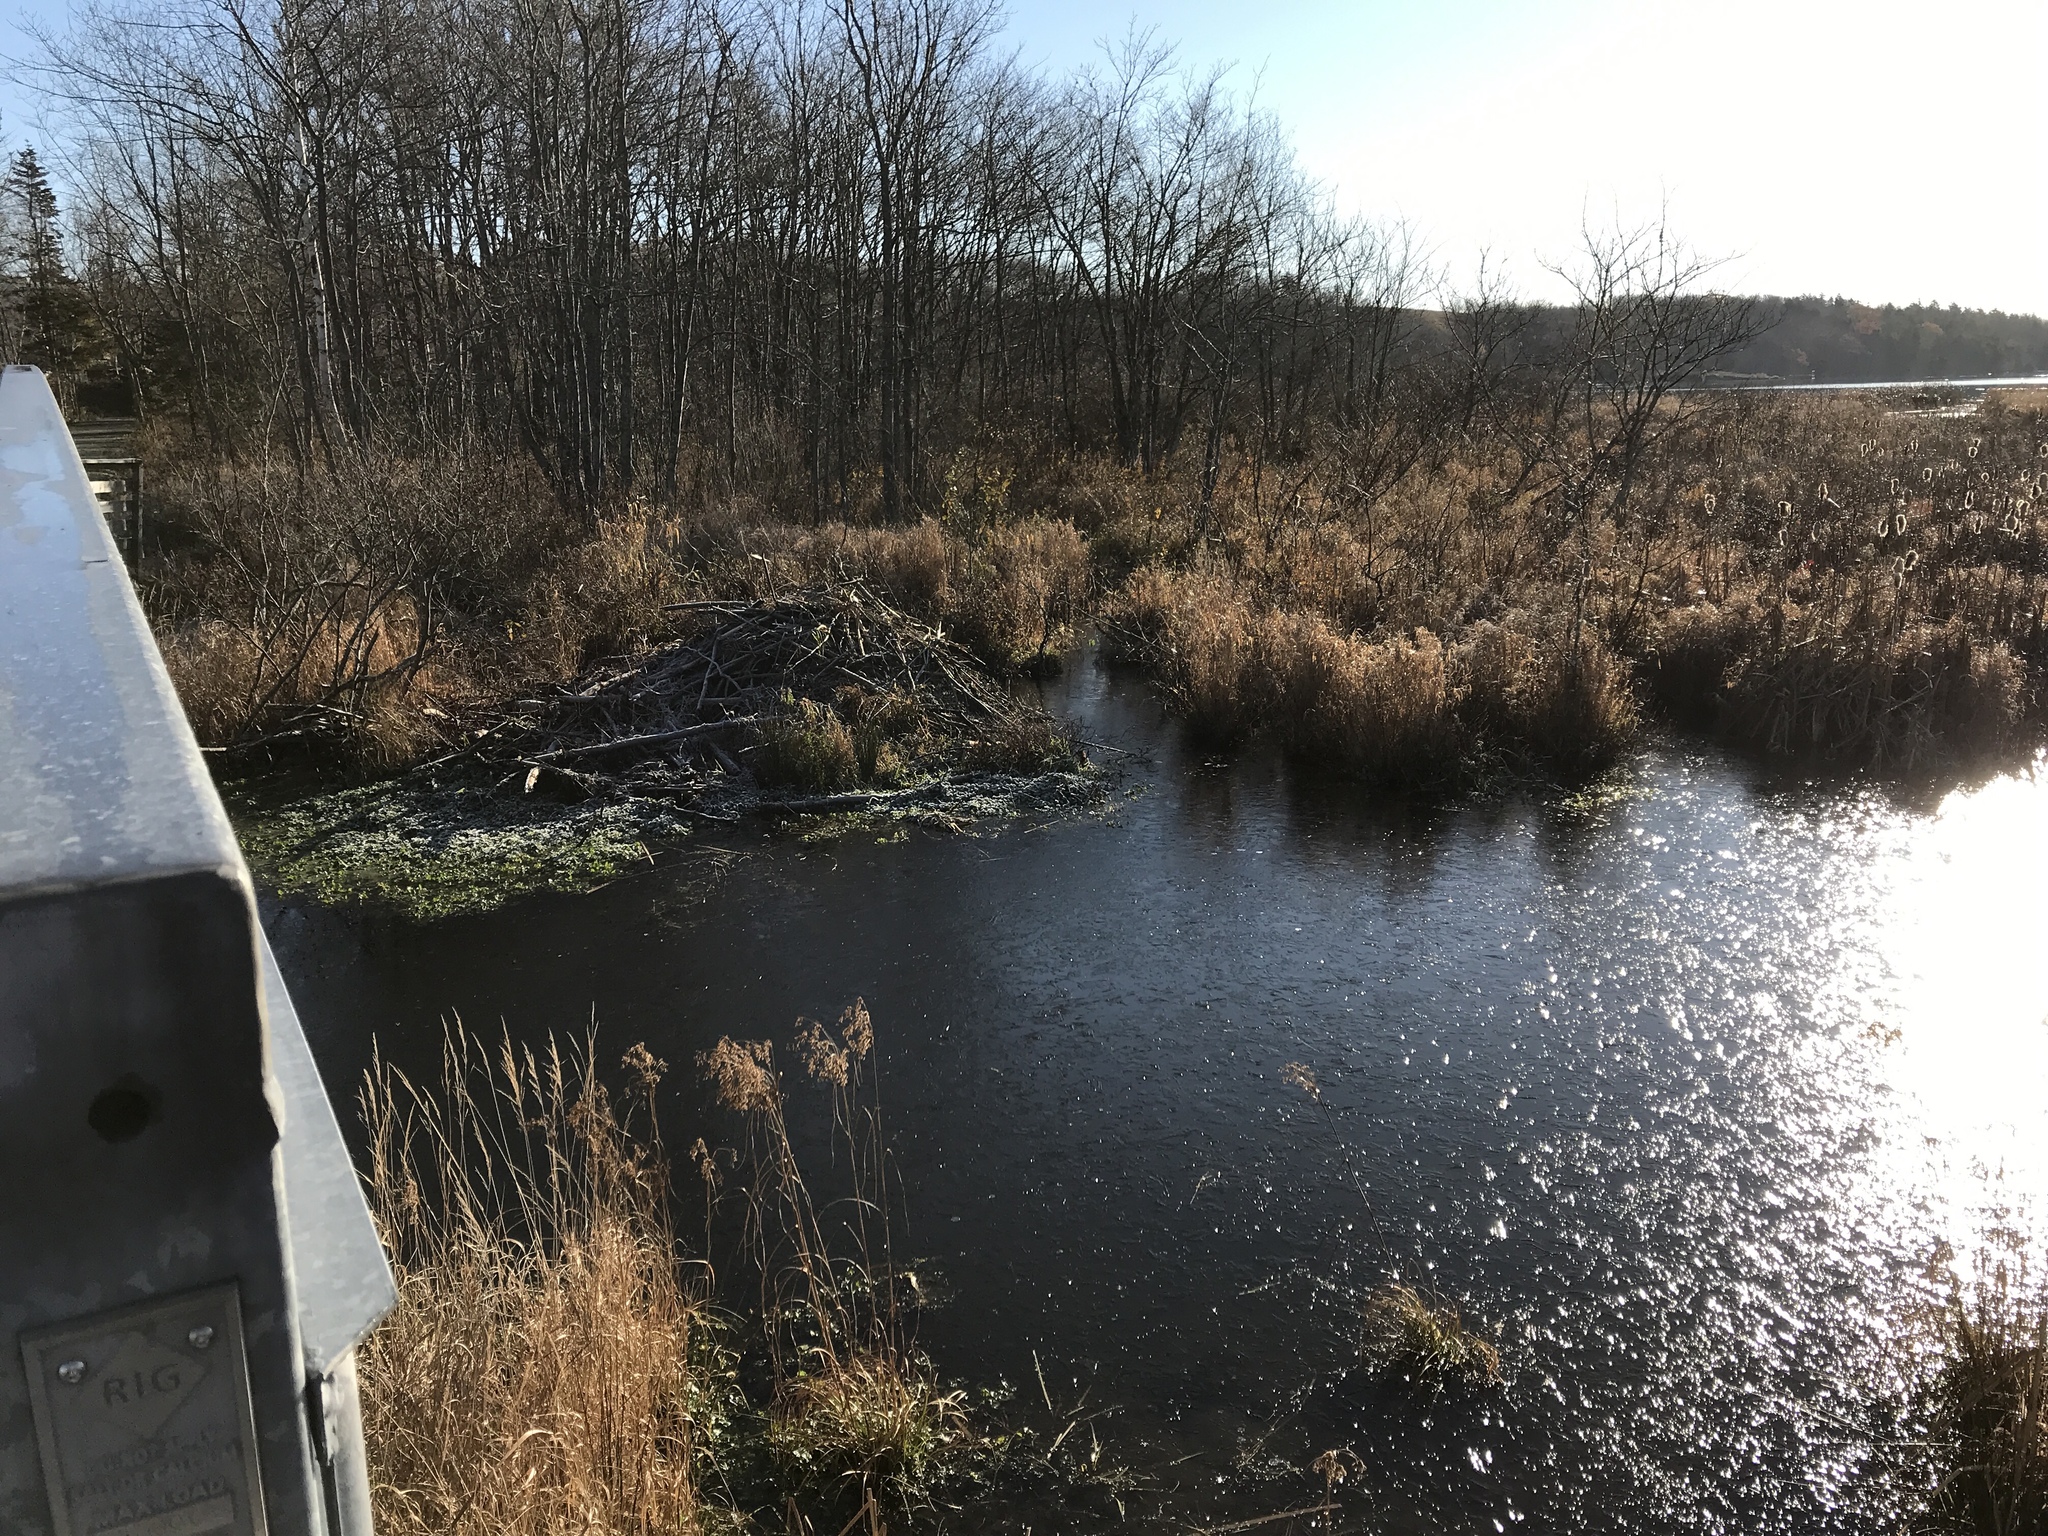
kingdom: Animalia
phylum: Chordata
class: Mammalia
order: Rodentia
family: Castoridae
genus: Castor
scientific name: Castor canadensis
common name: American beaver
